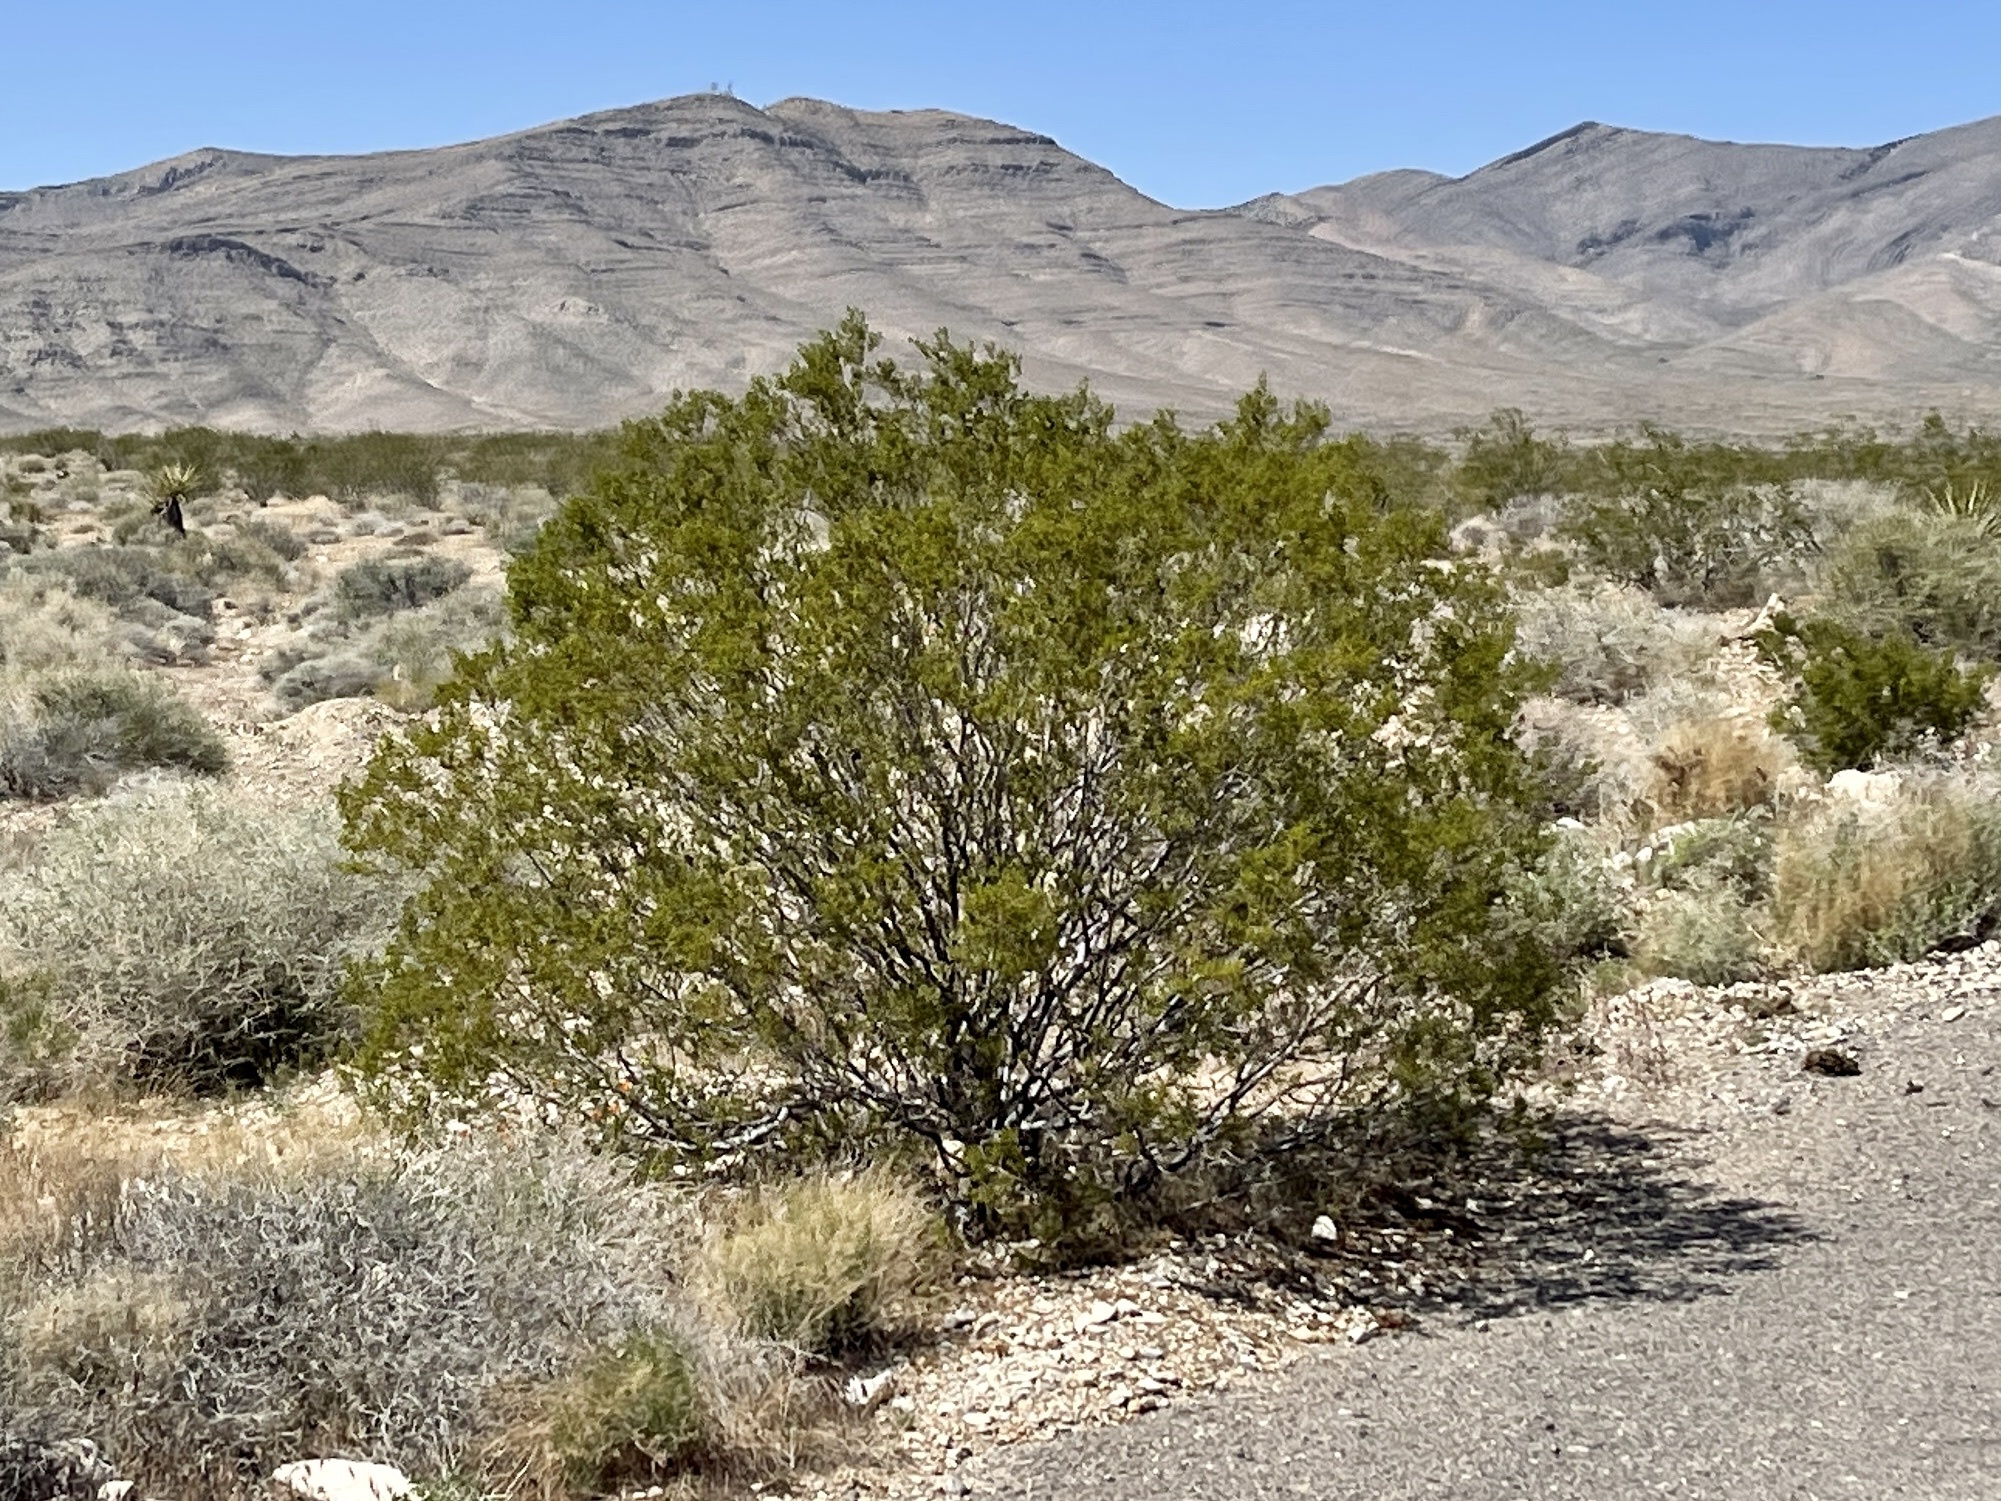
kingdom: Plantae
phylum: Tracheophyta
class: Magnoliopsida
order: Zygophyllales
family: Zygophyllaceae
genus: Larrea
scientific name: Larrea tridentata
